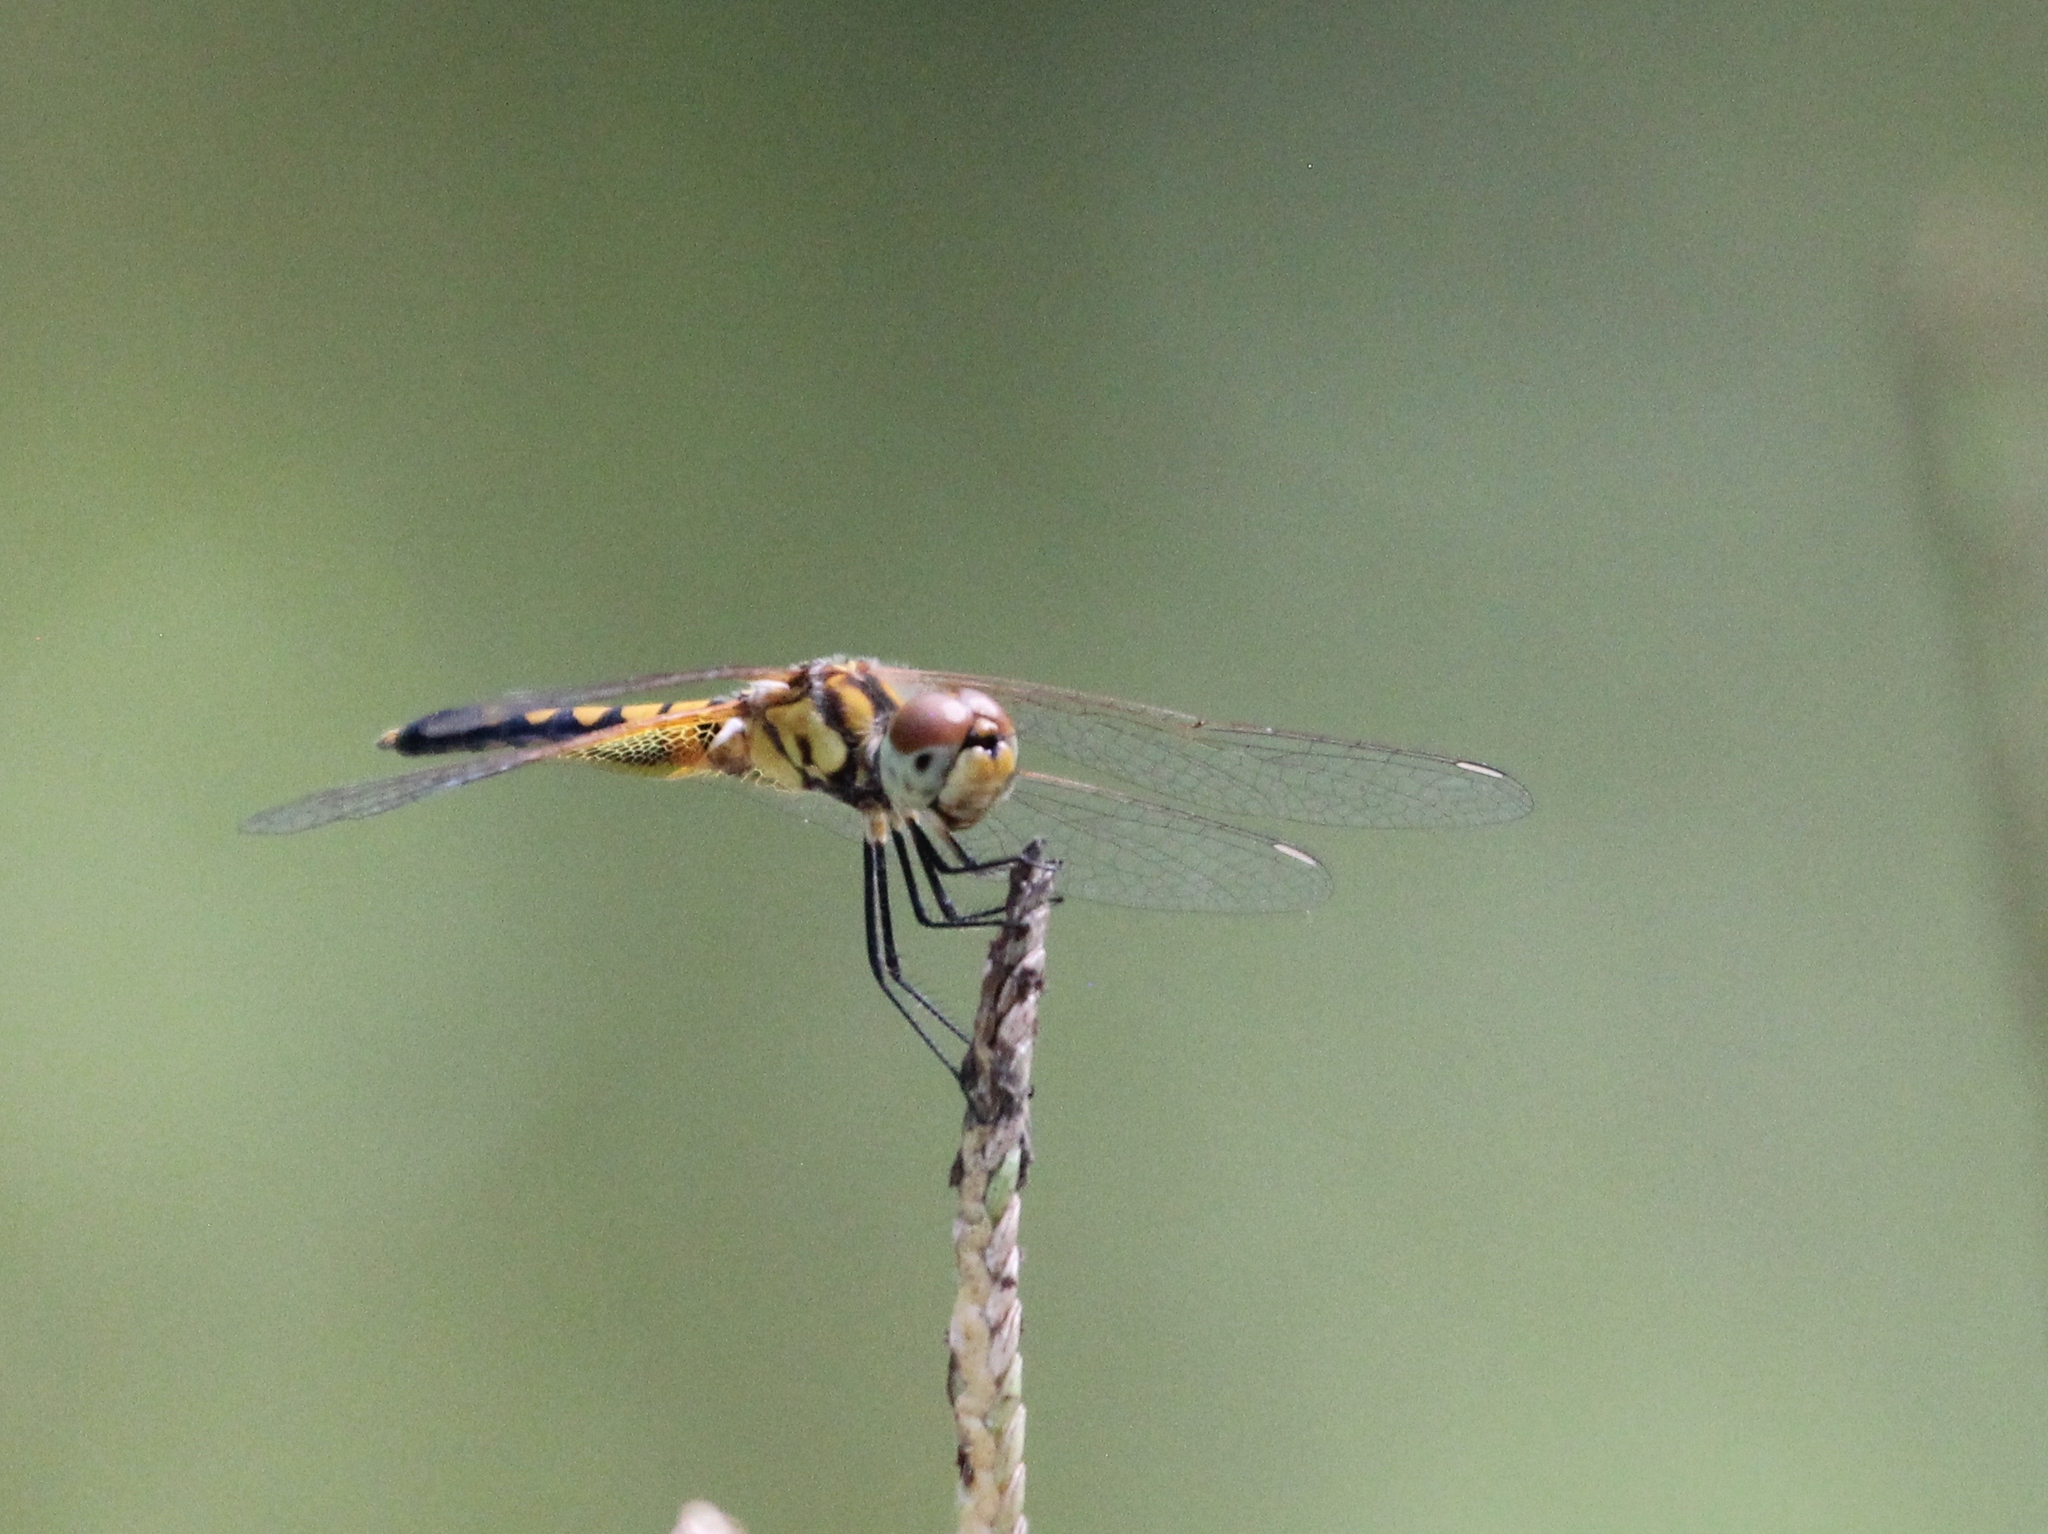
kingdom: Animalia
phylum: Arthropoda
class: Insecta
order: Odonata
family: Libellulidae
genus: Celithemis
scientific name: Celithemis amanda
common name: Amanda's pennant
